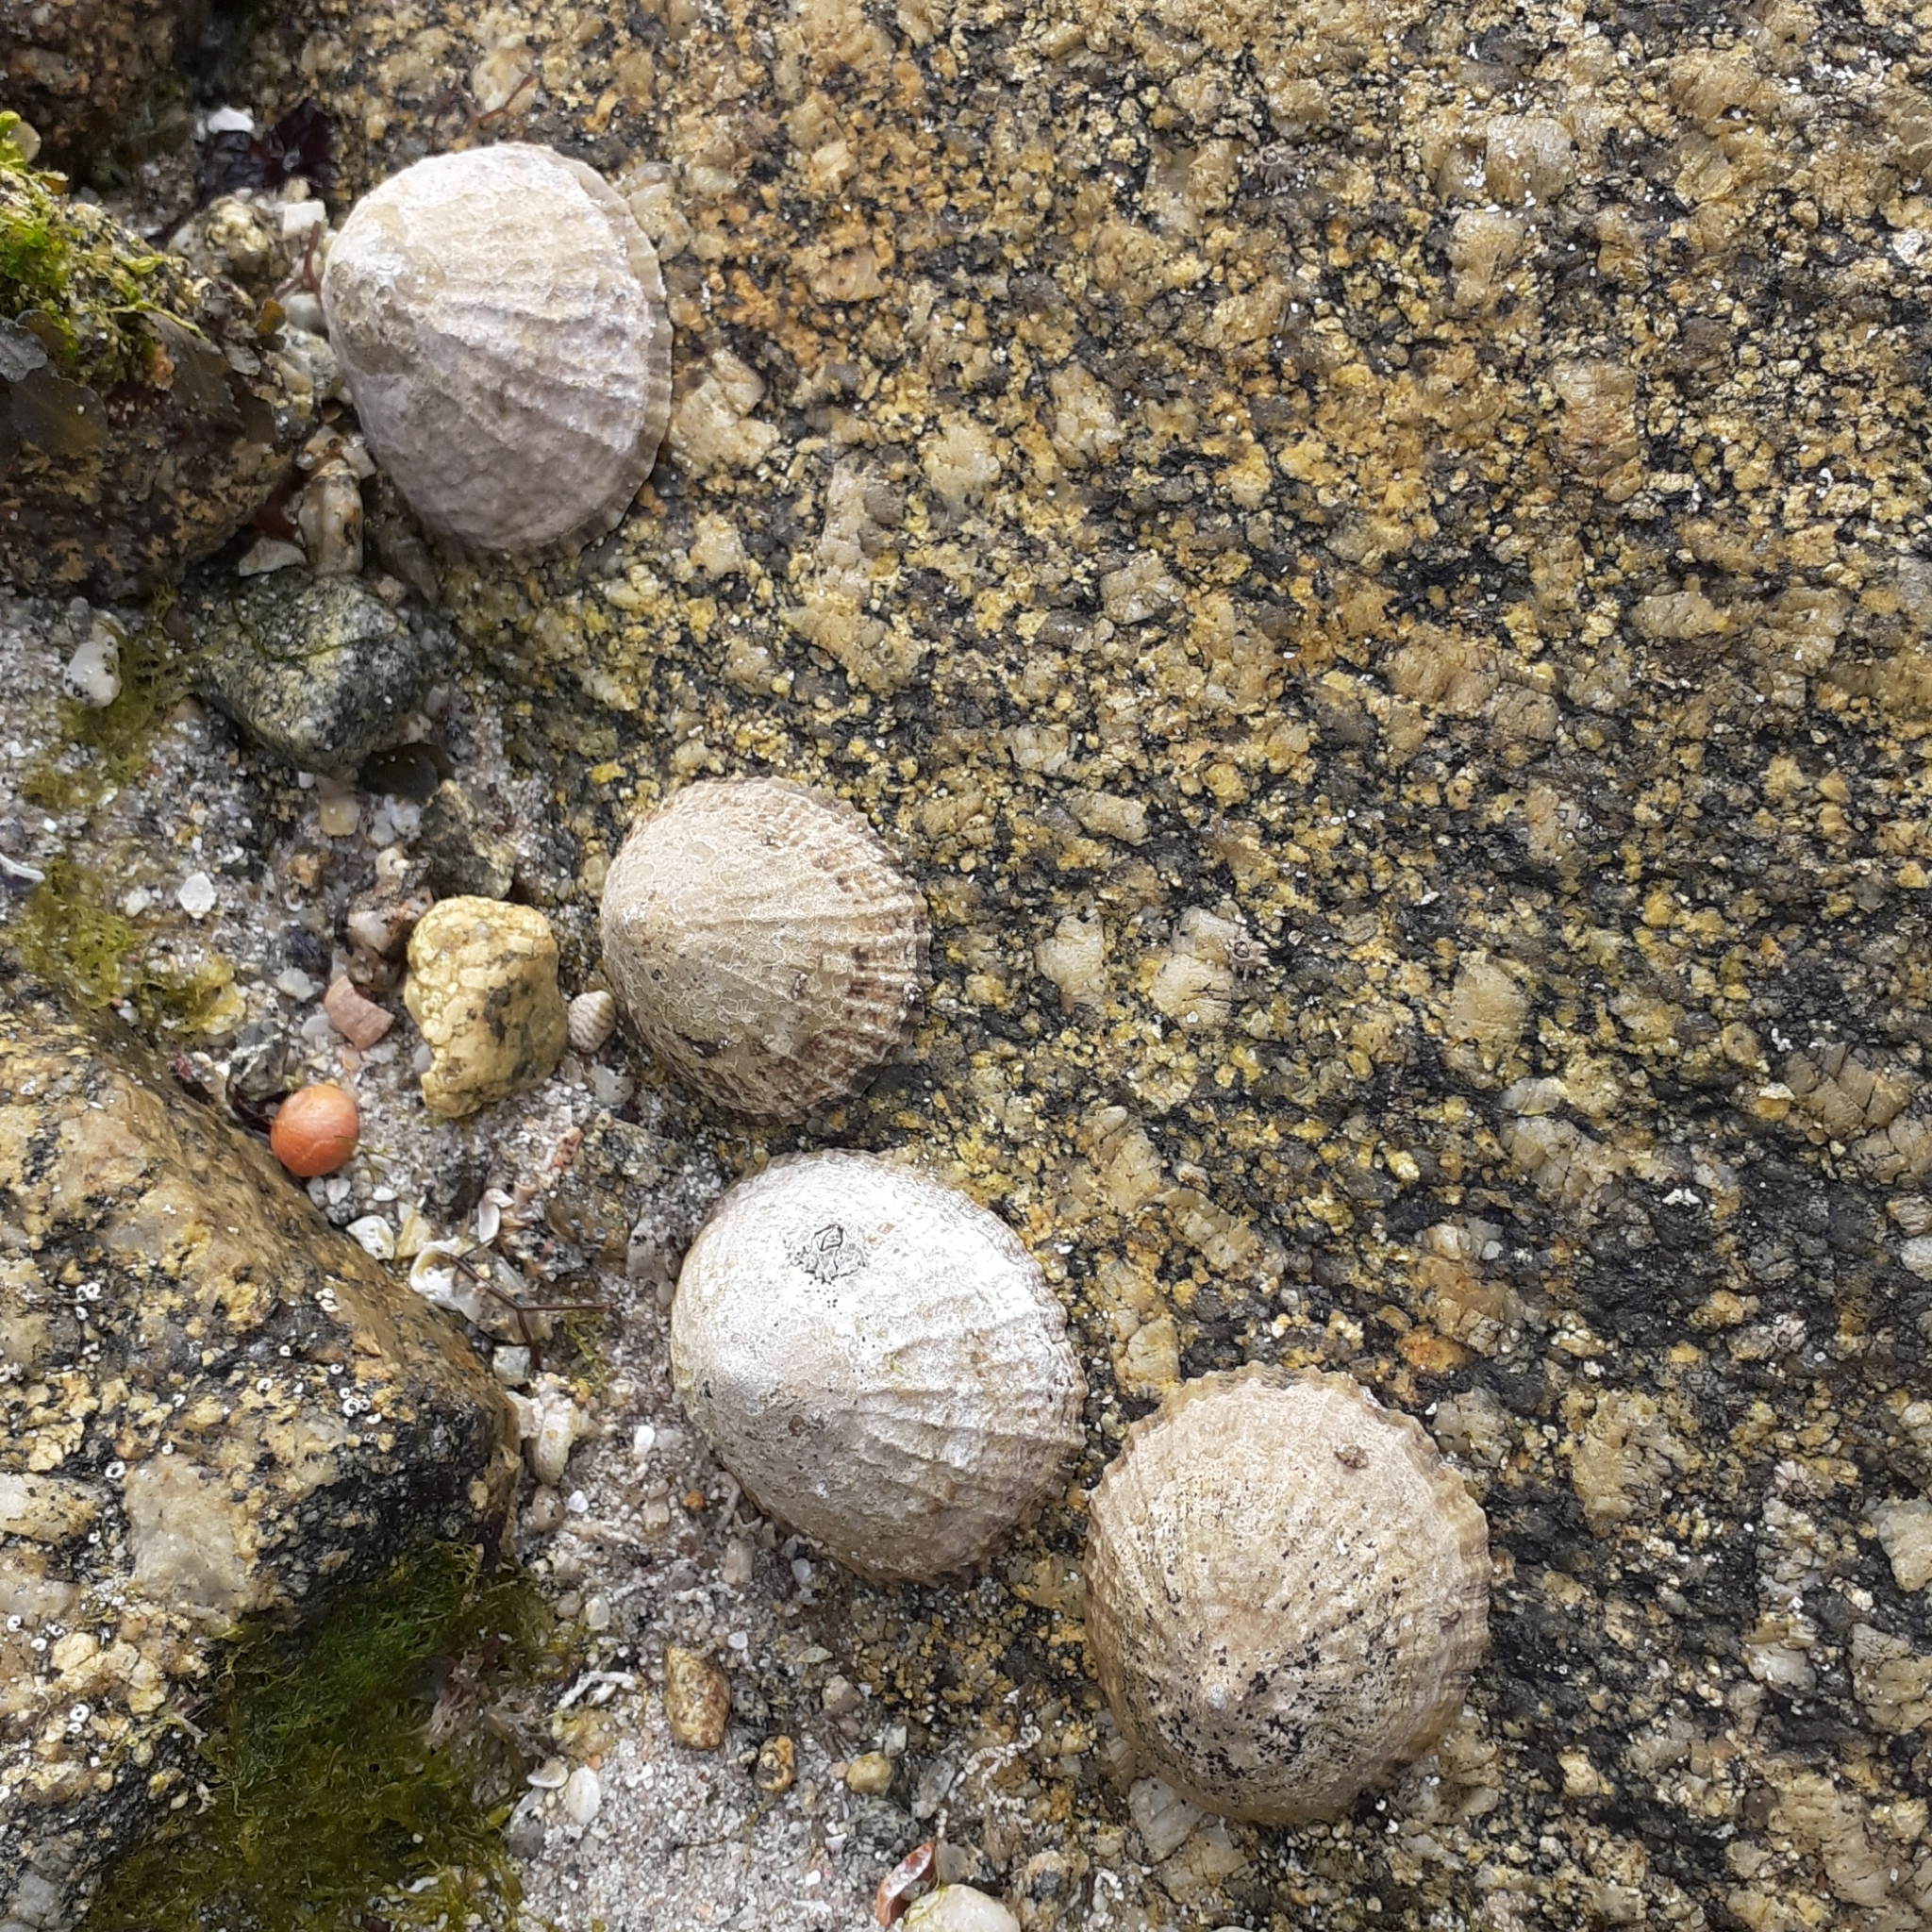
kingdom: Animalia
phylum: Mollusca
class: Gastropoda
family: Patellidae
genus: Patella
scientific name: Patella vulgata
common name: Common limpet
